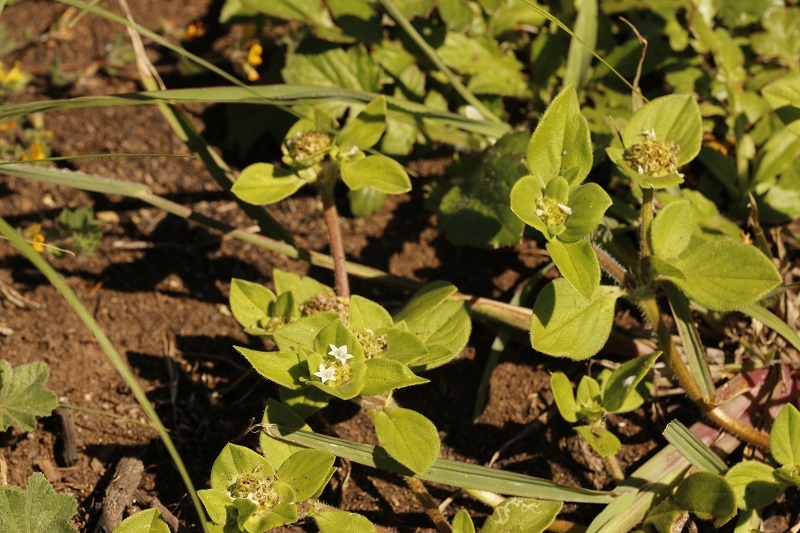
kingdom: Plantae
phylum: Tracheophyta
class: Magnoliopsida
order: Gentianales
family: Rubiaceae
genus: Richardia
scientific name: Richardia brasiliensis
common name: Tropical mexican clover
